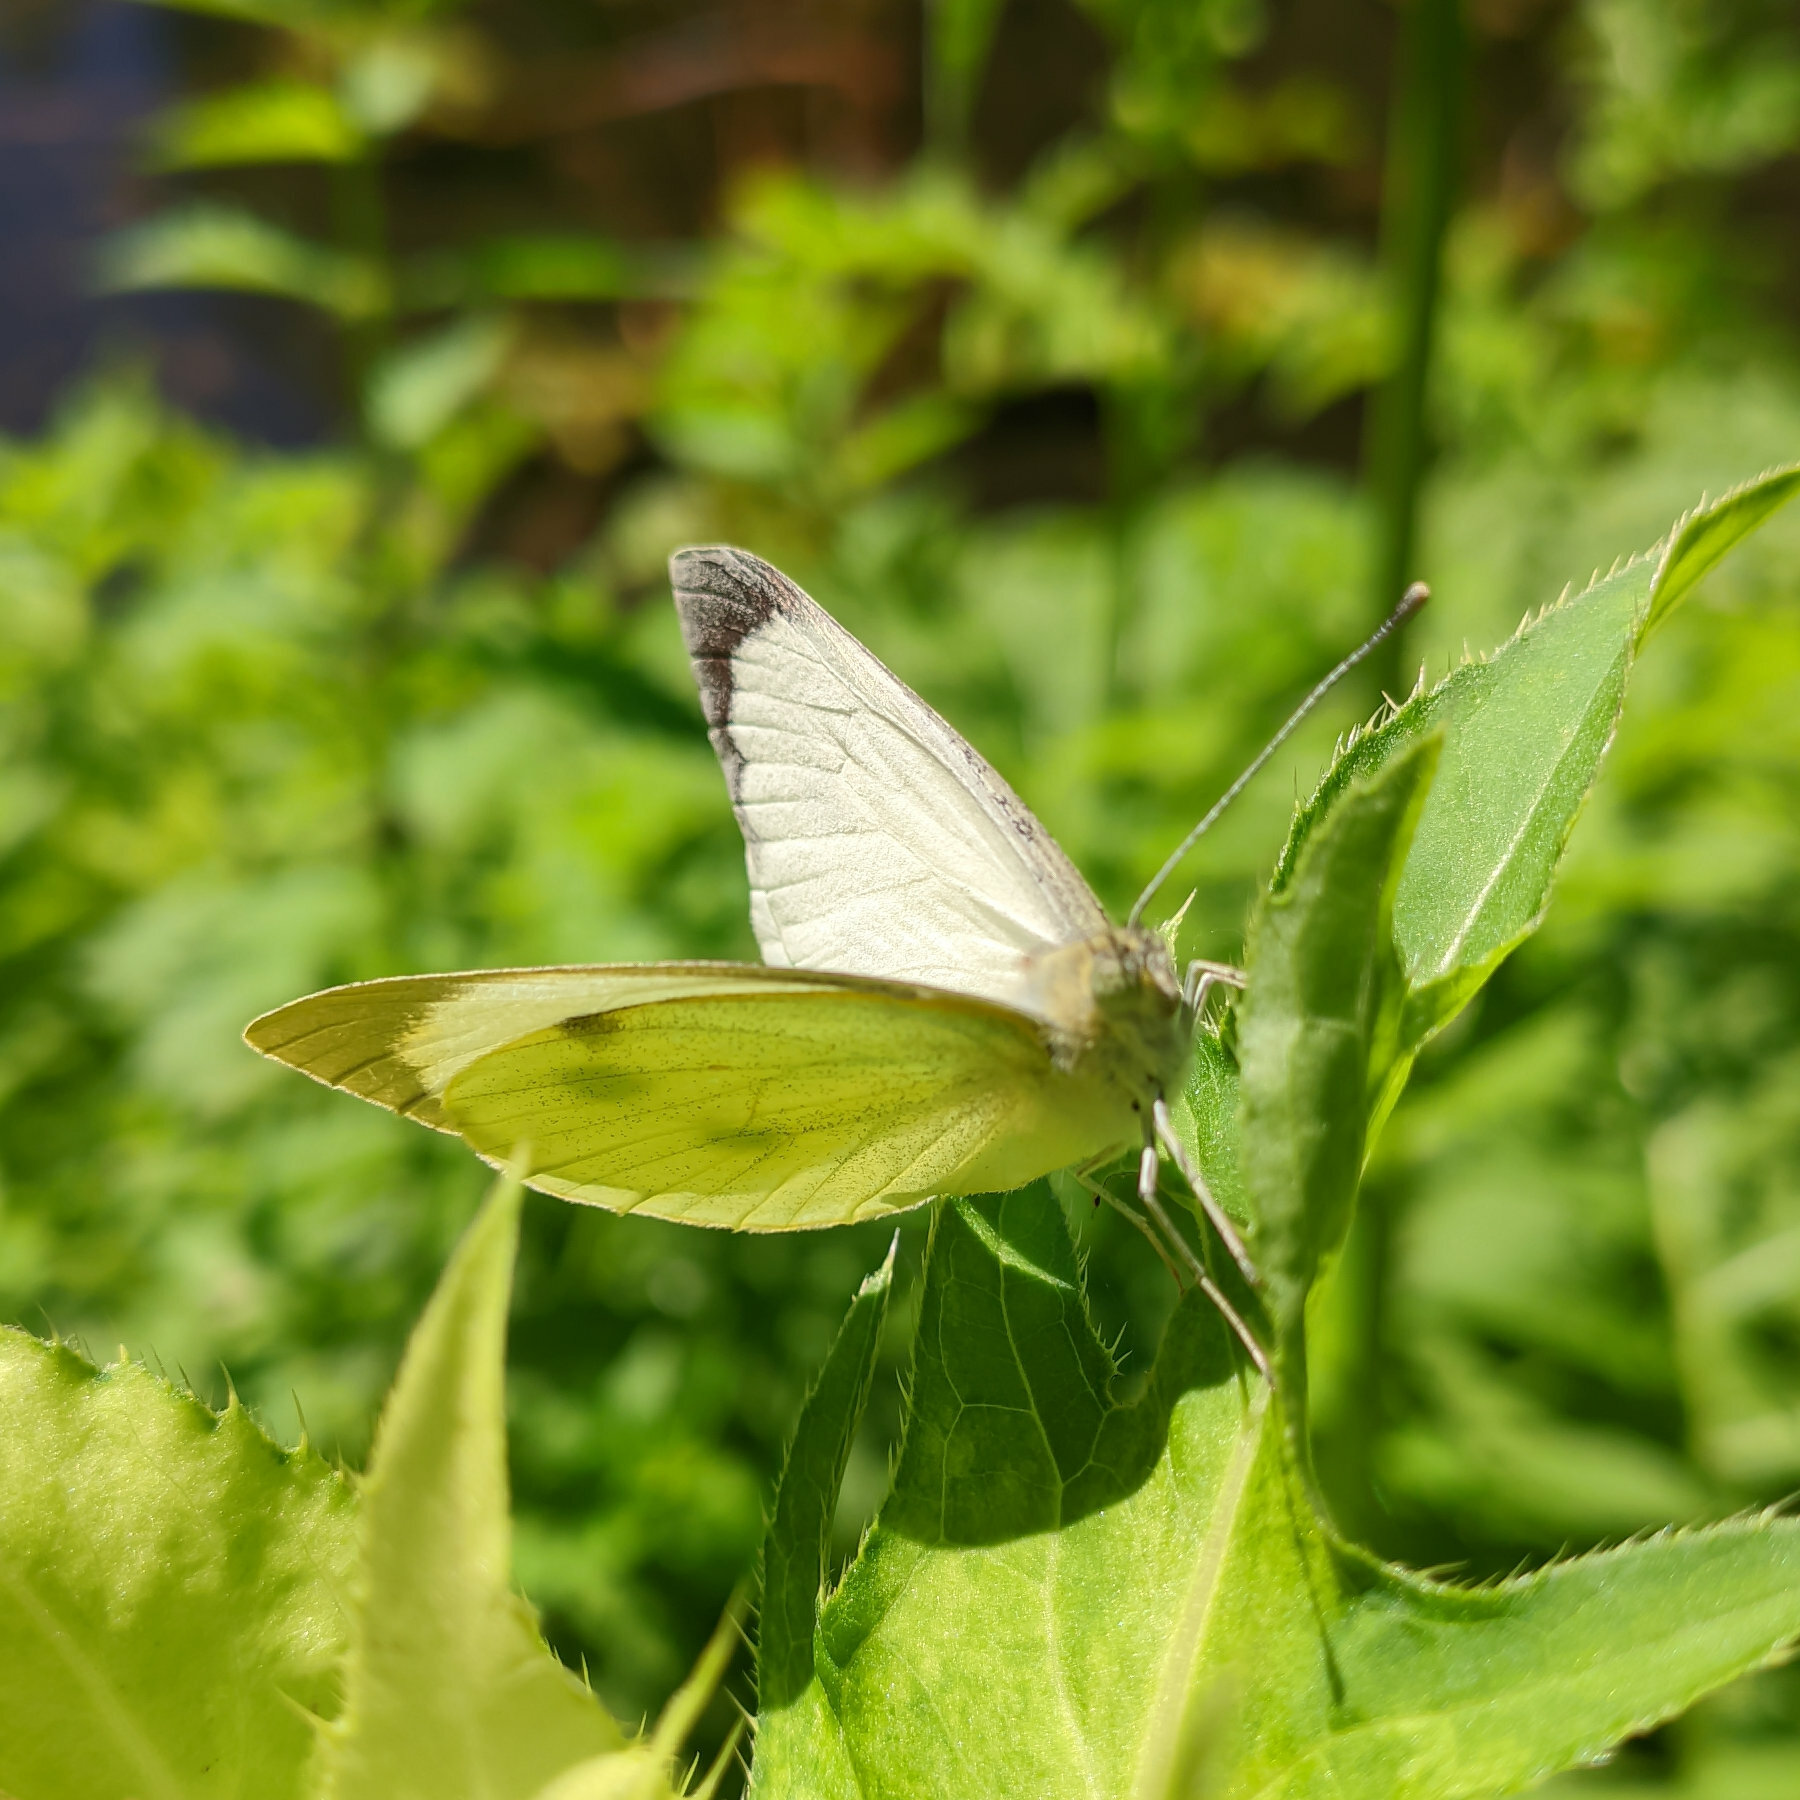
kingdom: Animalia
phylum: Arthropoda
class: Insecta
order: Lepidoptera
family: Pieridae
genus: Pieris
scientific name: Pieris brassicae
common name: Large white
